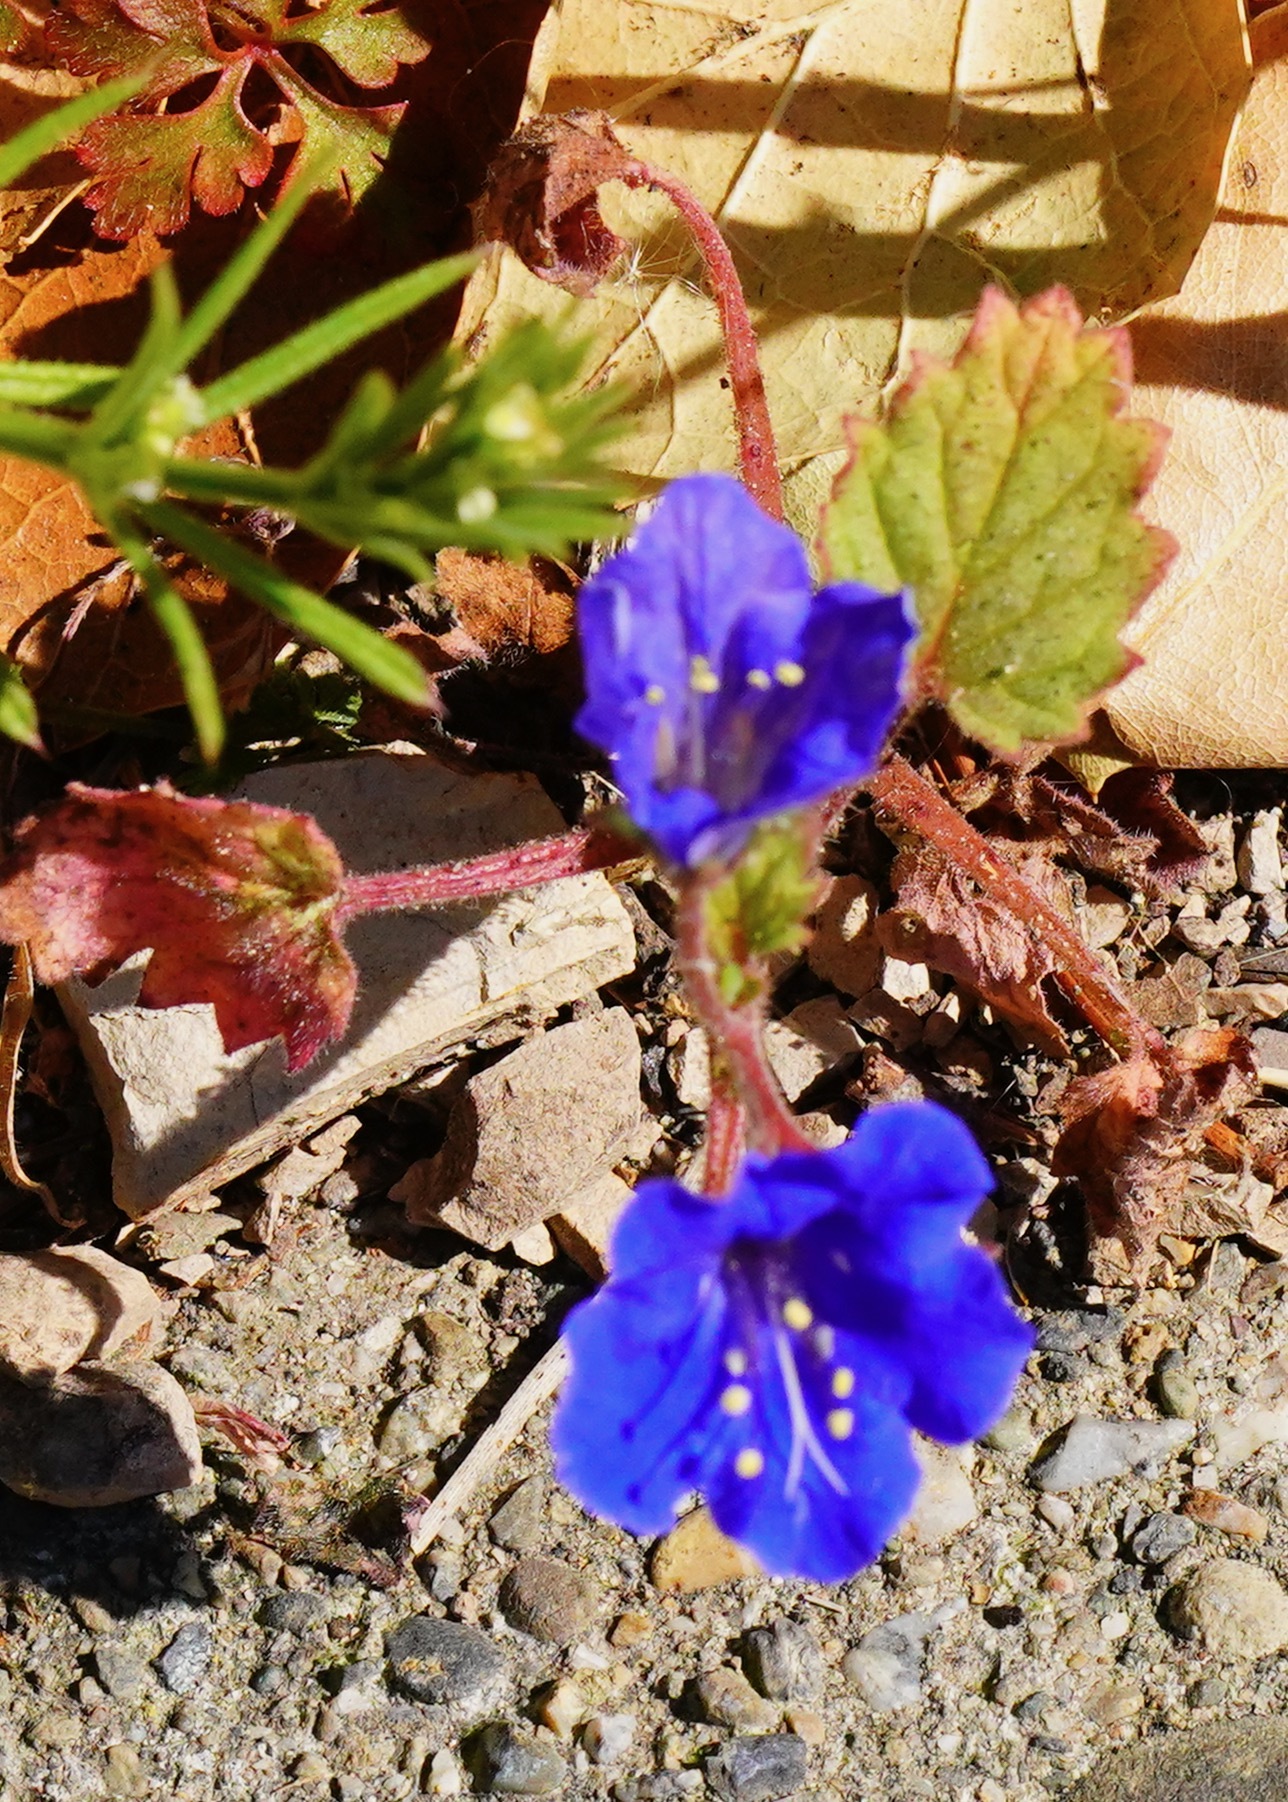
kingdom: Plantae
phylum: Tracheophyta
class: Magnoliopsida
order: Boraginales
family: Hydrophyllaceae
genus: Phacelia
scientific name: Phacelia campanularia
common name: California bluebell
